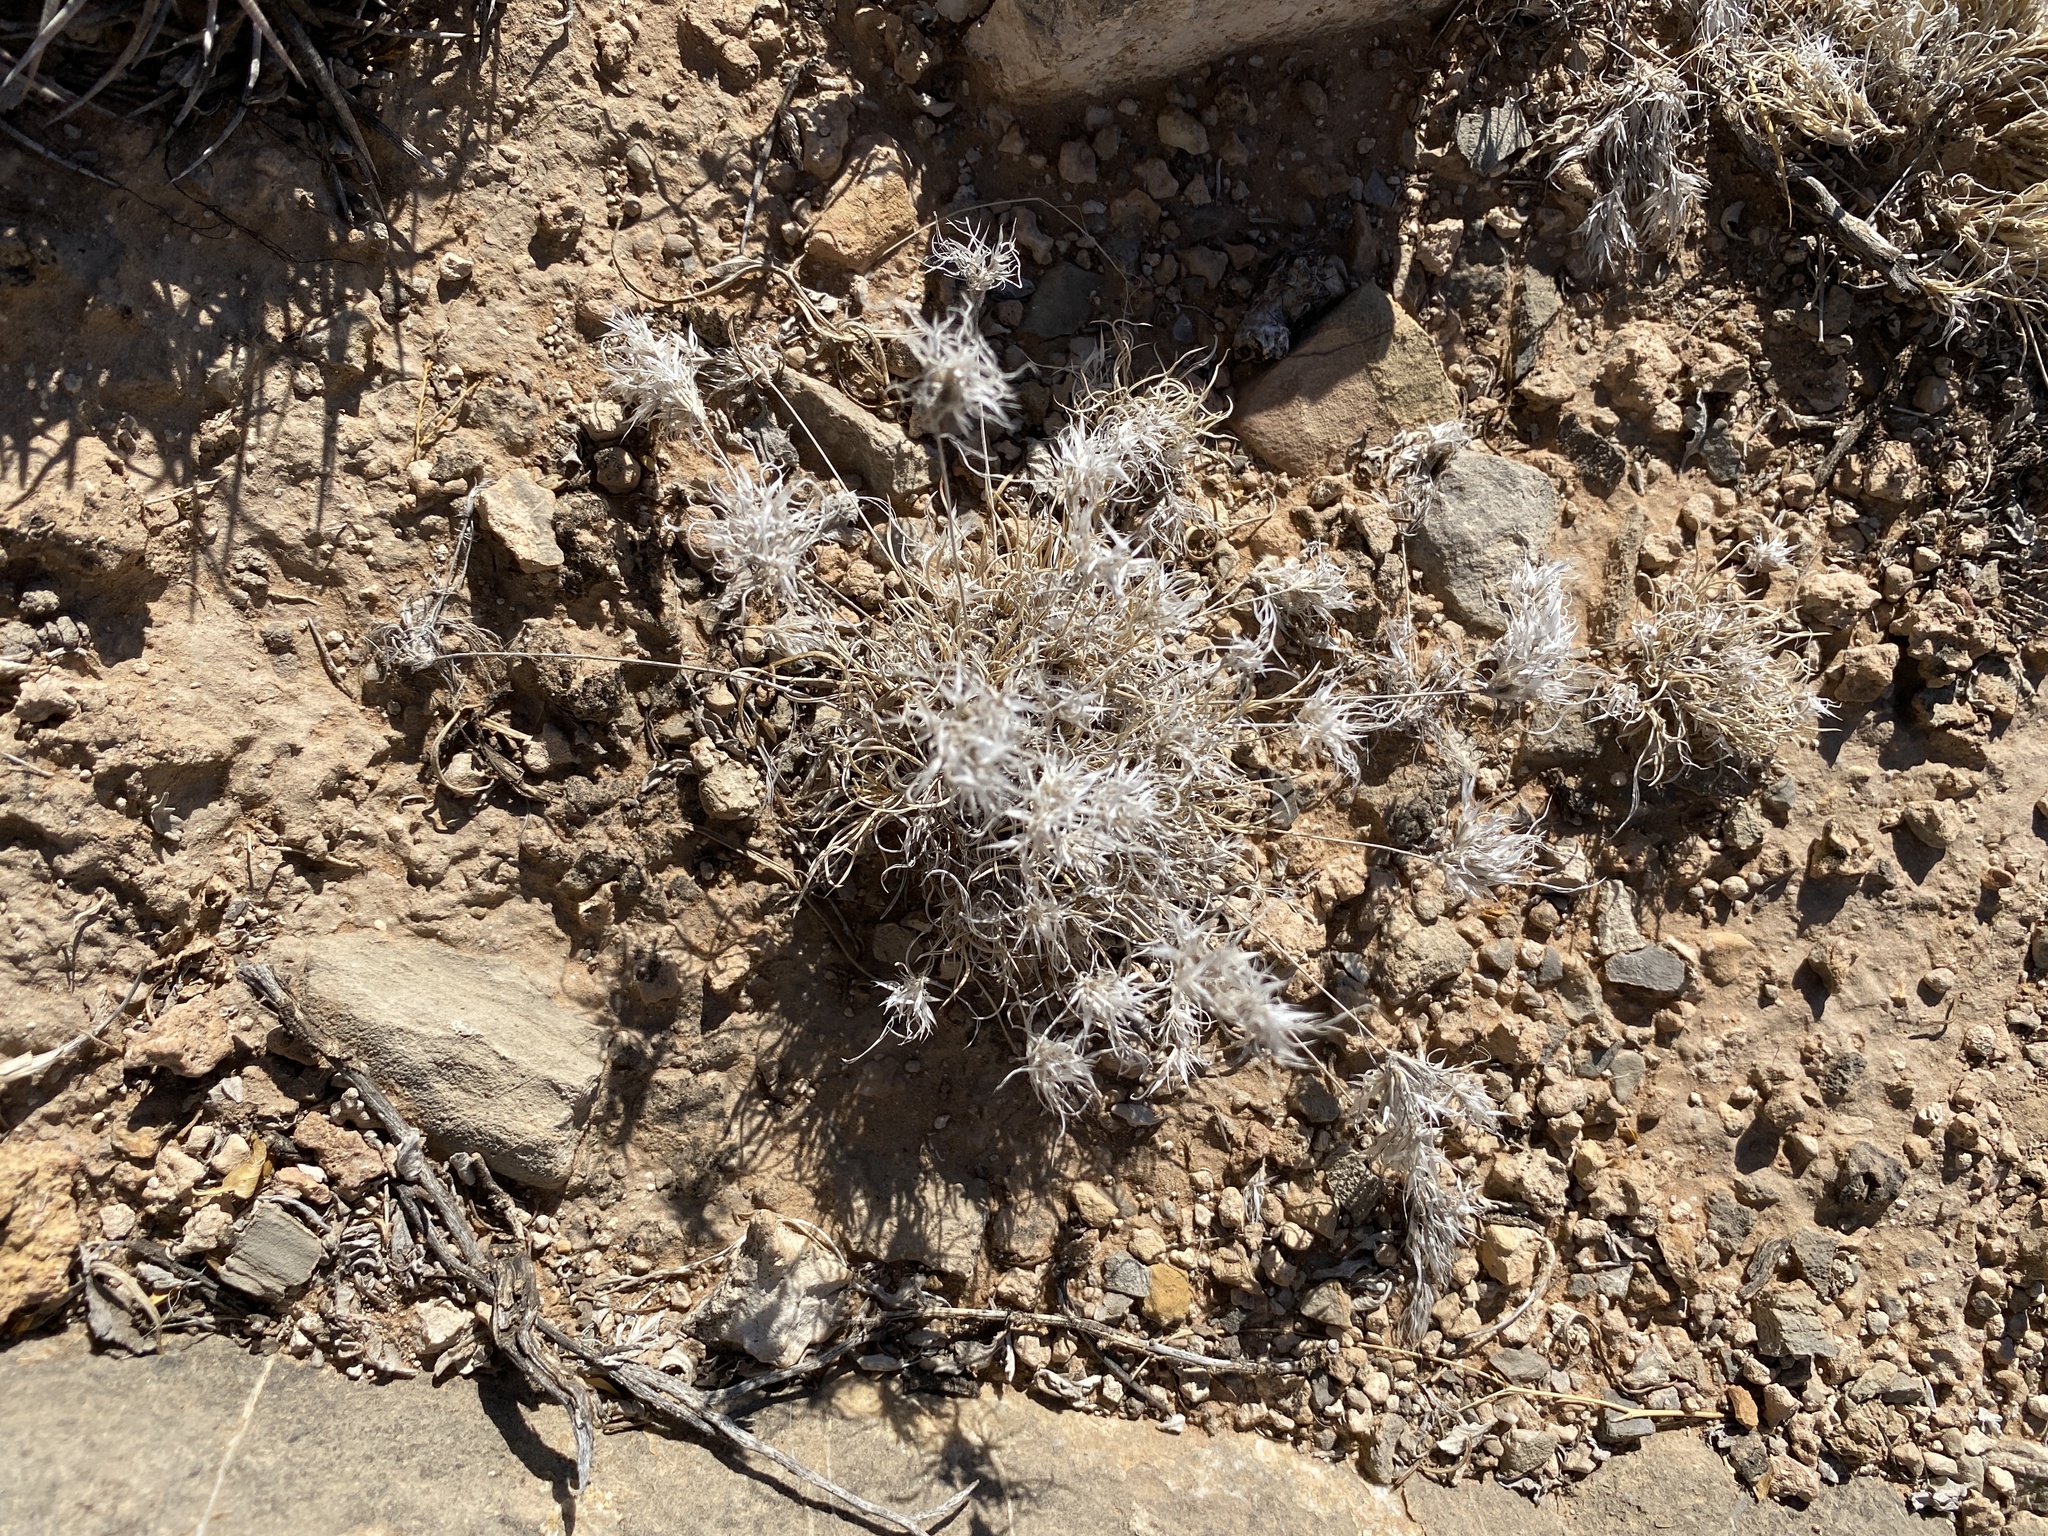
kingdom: Plantae
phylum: Tracheophyta
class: Liliopsida
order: Poales
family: Poaceae
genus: Dasyochloa
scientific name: Dasyochloa pulchella
